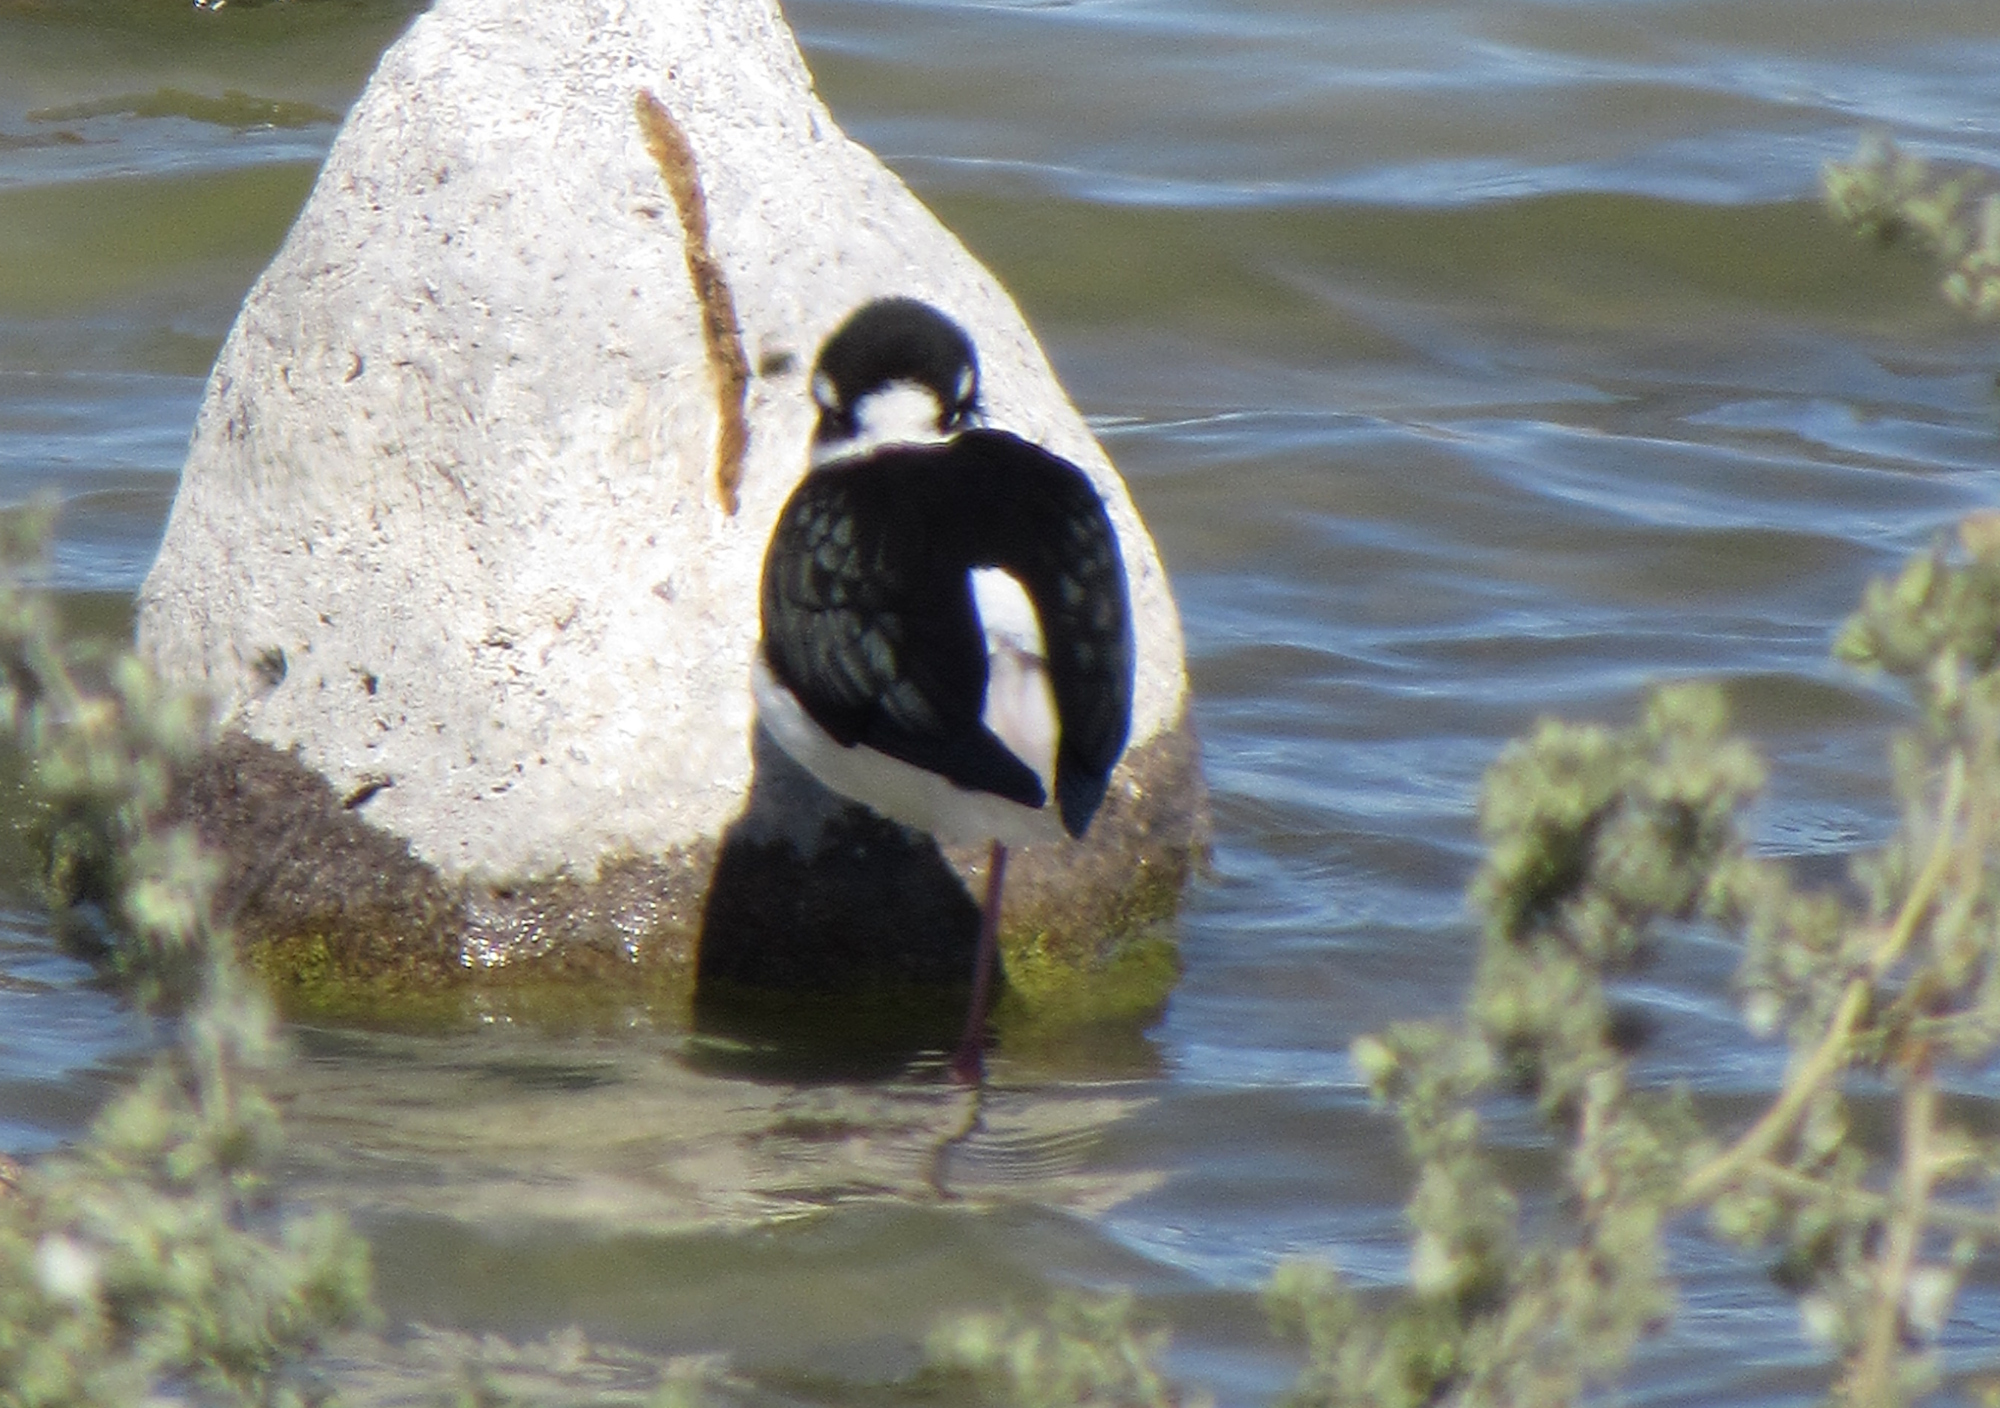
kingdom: Animalia
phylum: Chordata
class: Aves
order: Charadriiformes
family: Recurvirostridae
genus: Himantopus
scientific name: Himantopus mexicanus
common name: Black-necked stilt
